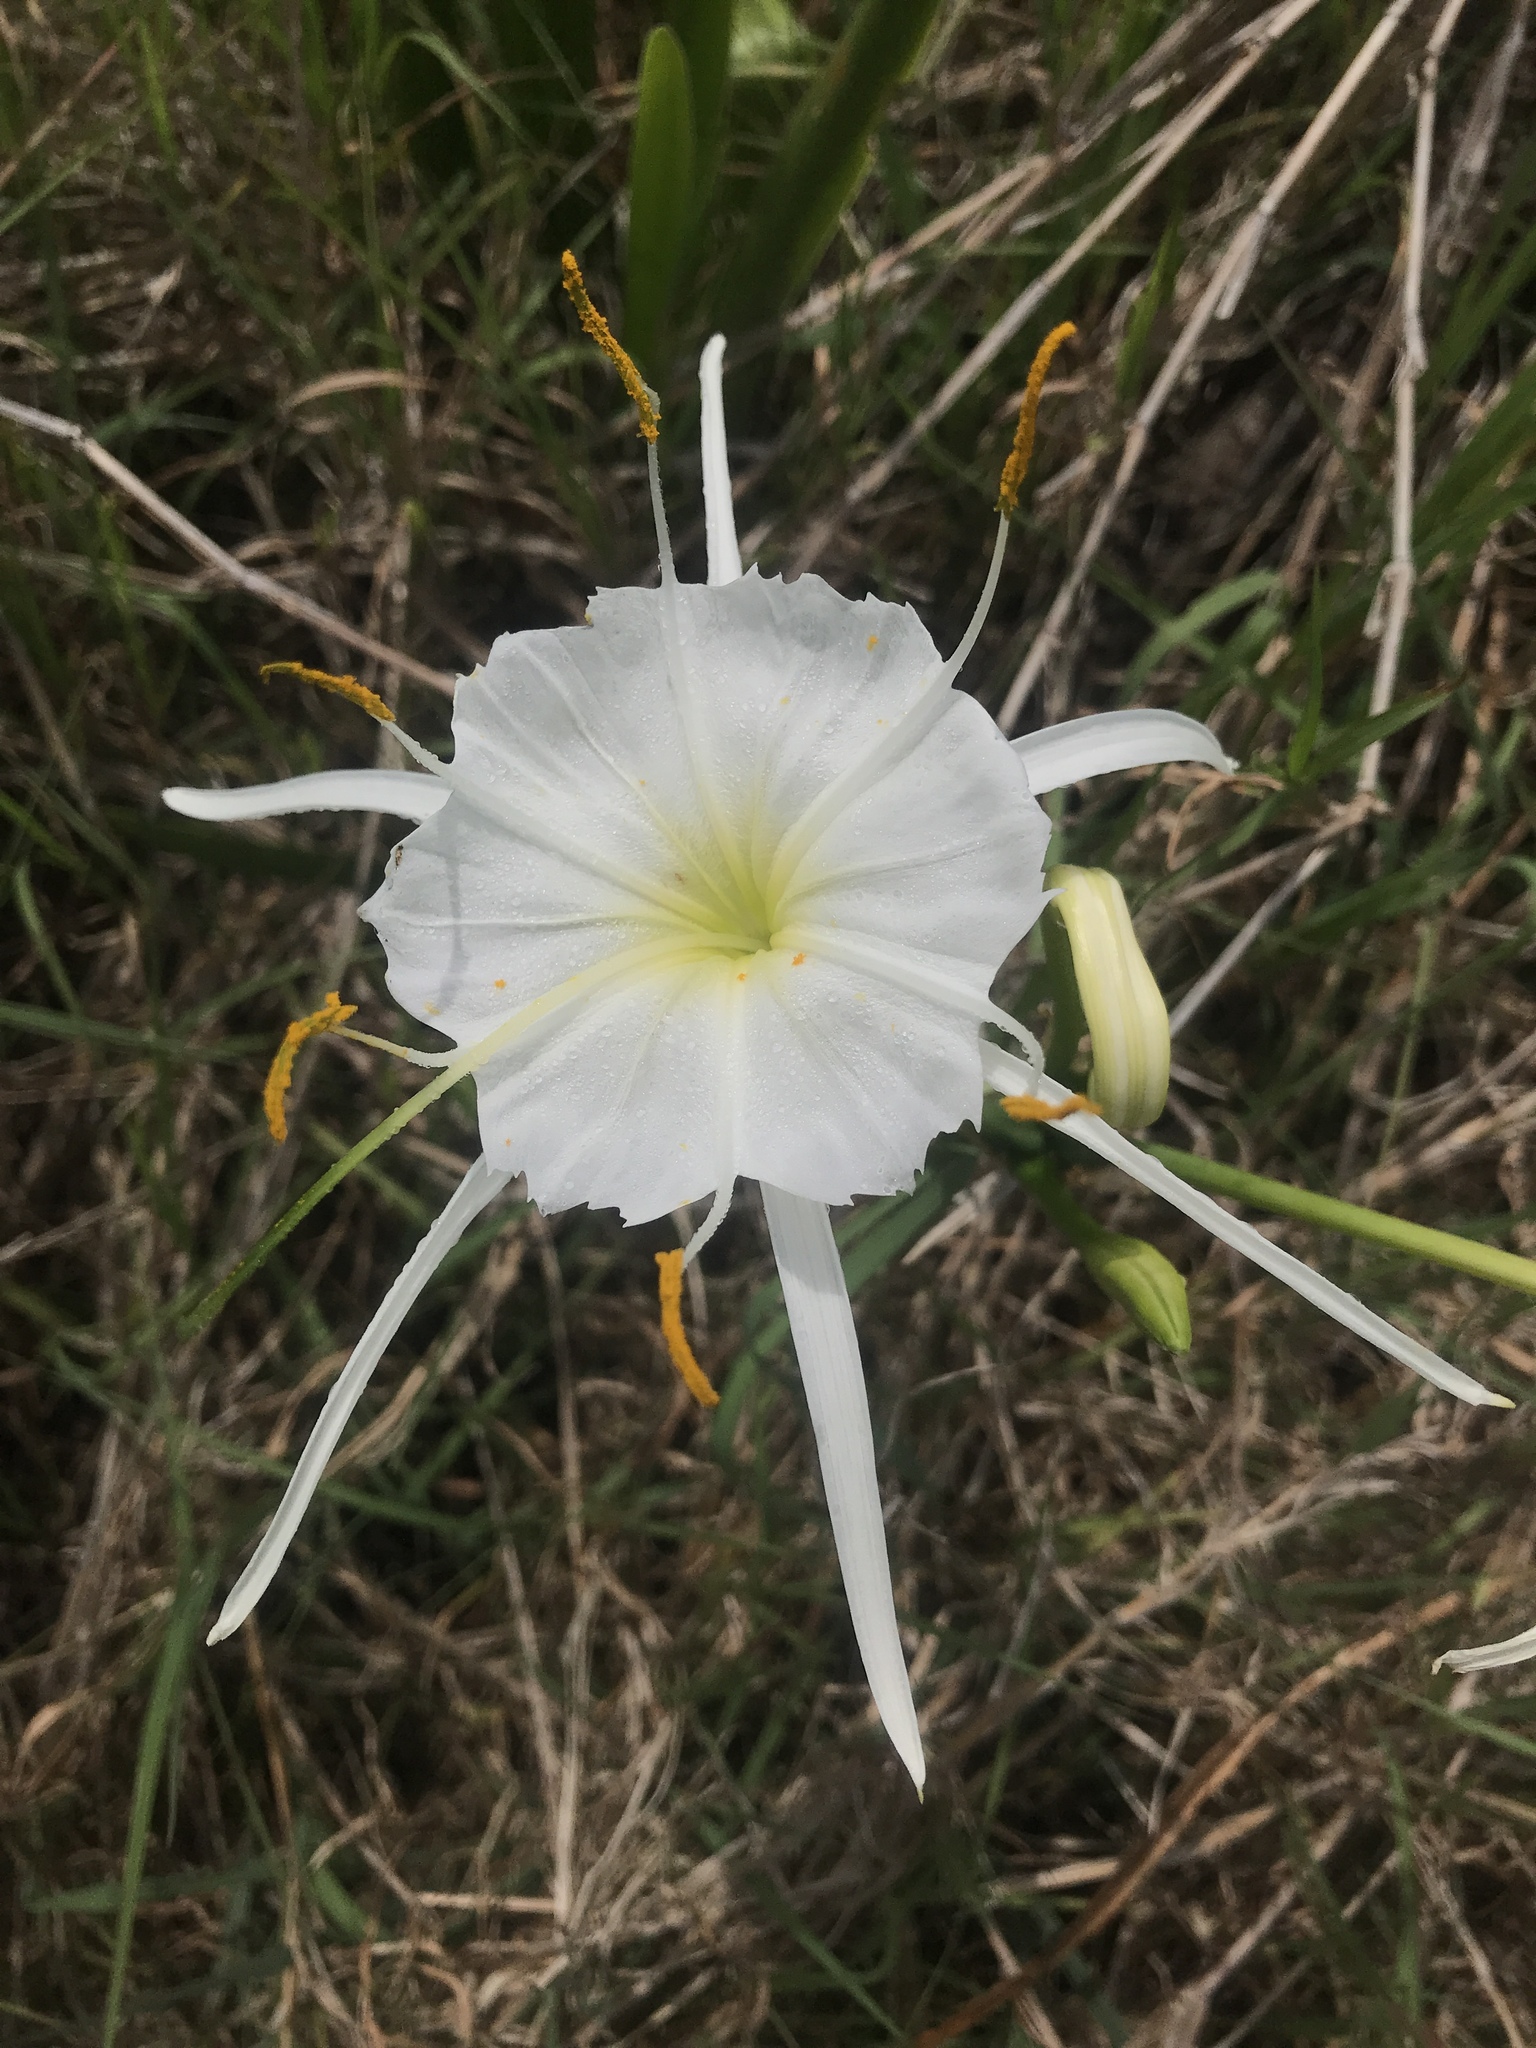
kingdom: Plantae
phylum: Tracheophyta
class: Liliopsida
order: Asparagales
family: Amaryllidaceae
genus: Hymenocallis
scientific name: Hymenocallis liriosme
